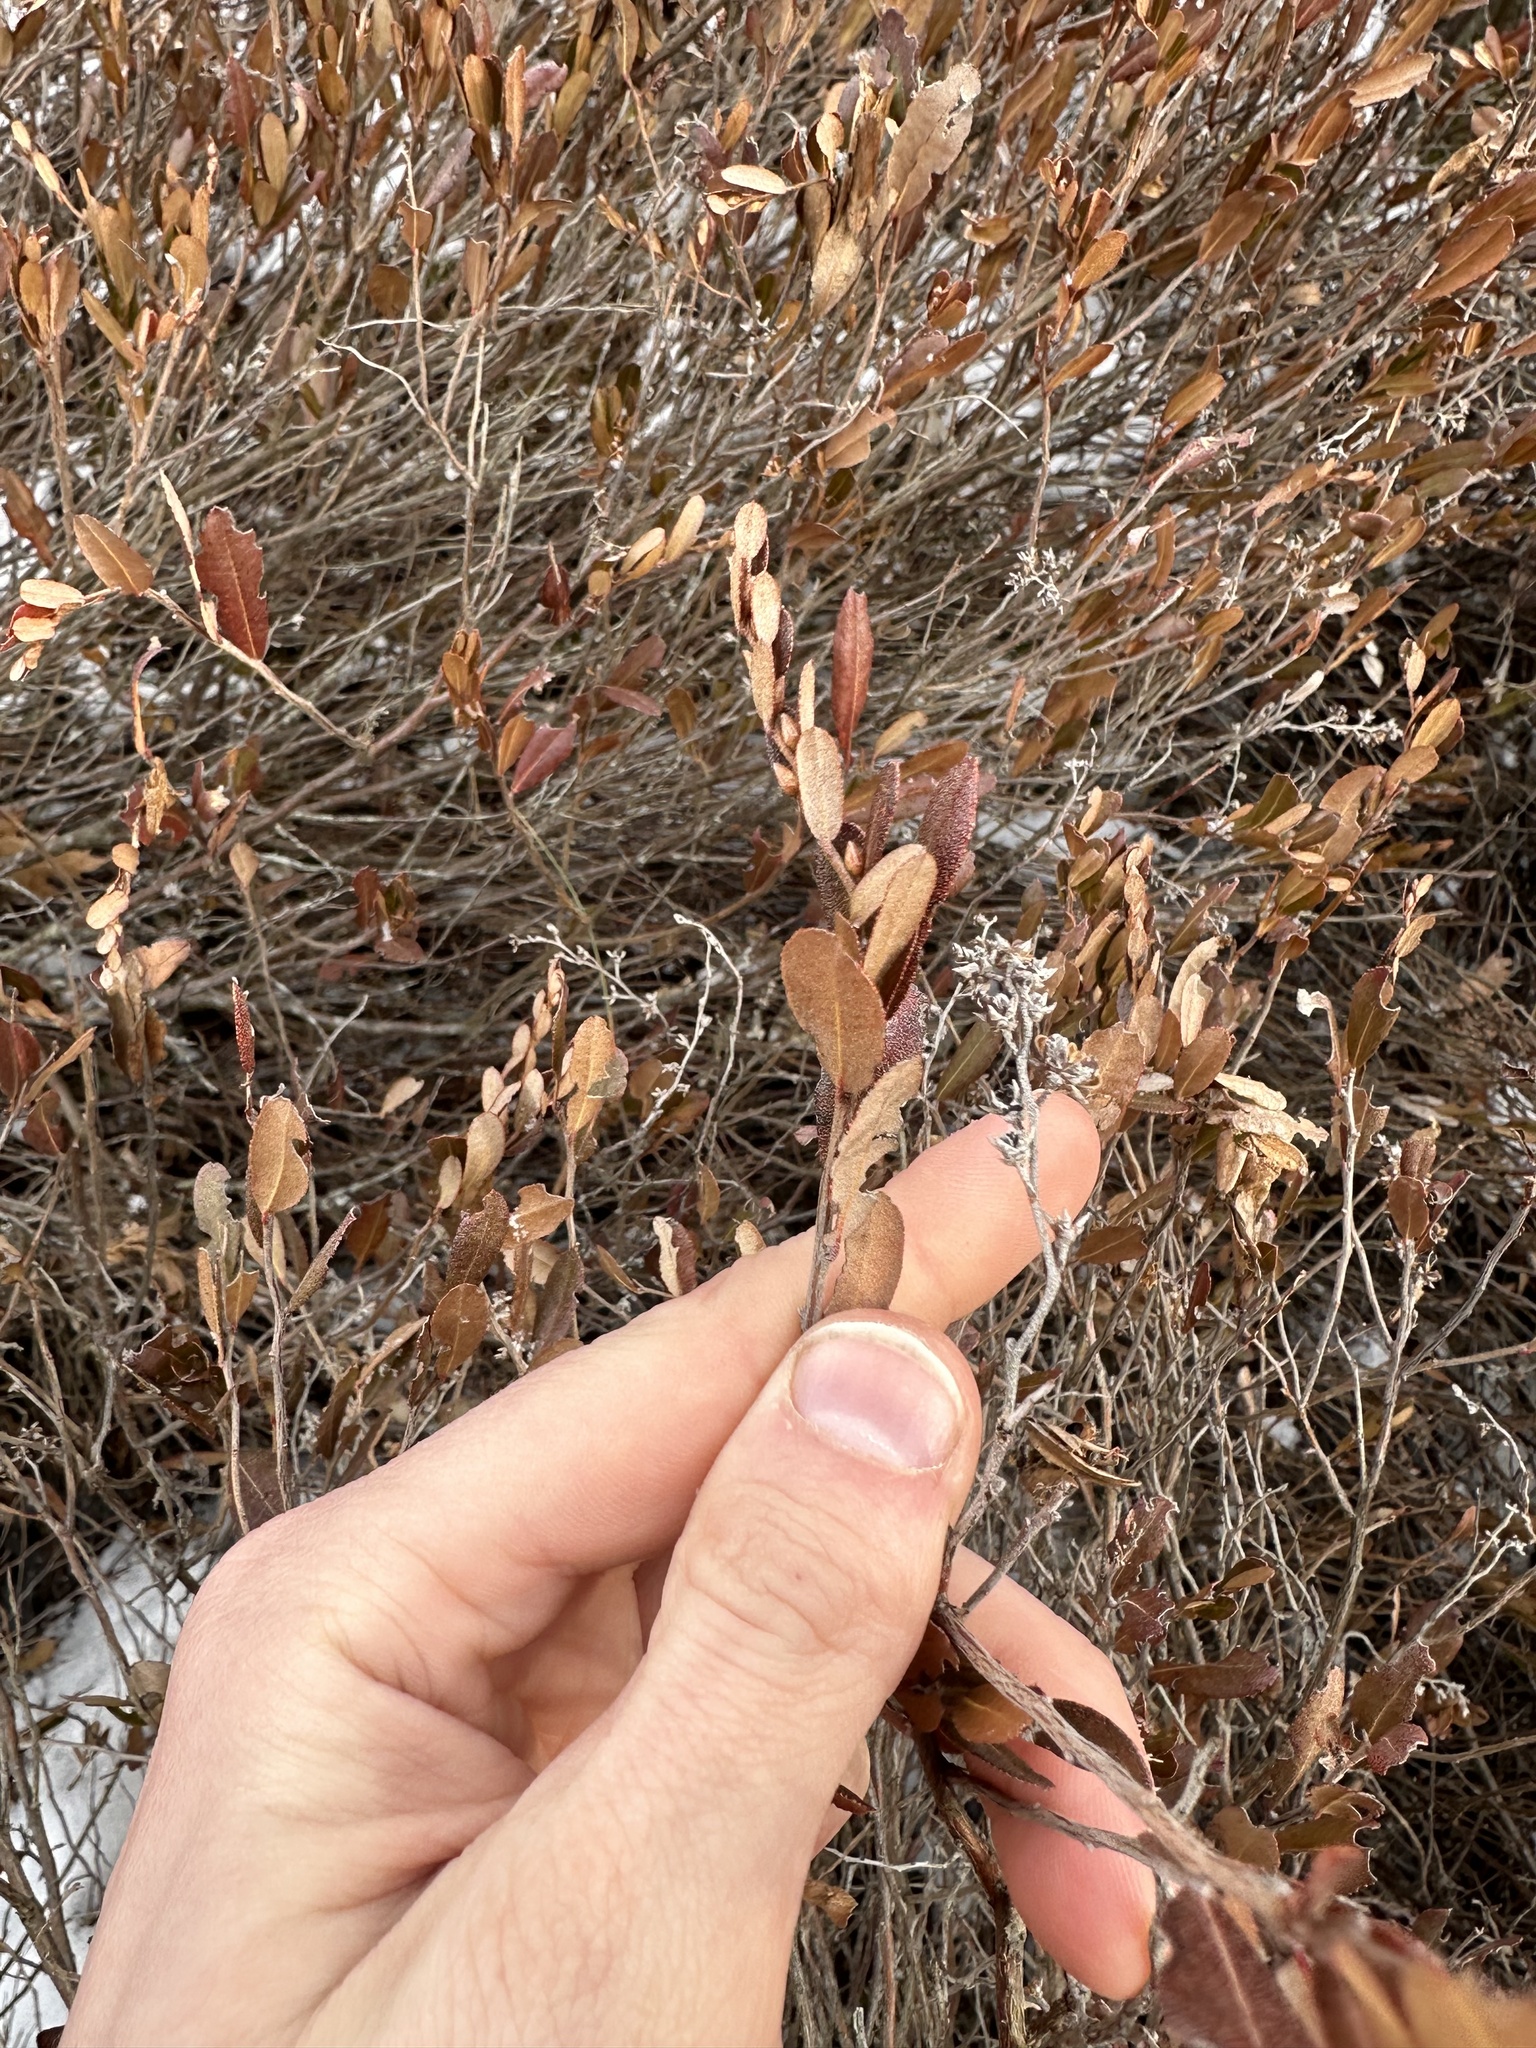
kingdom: Plantae
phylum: Tracheophyta
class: Magnoliopsida
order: Ericales
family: Ericaceae
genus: Chamaedaphne
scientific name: Chamaedaphne calyculata
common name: Leatherleaf
